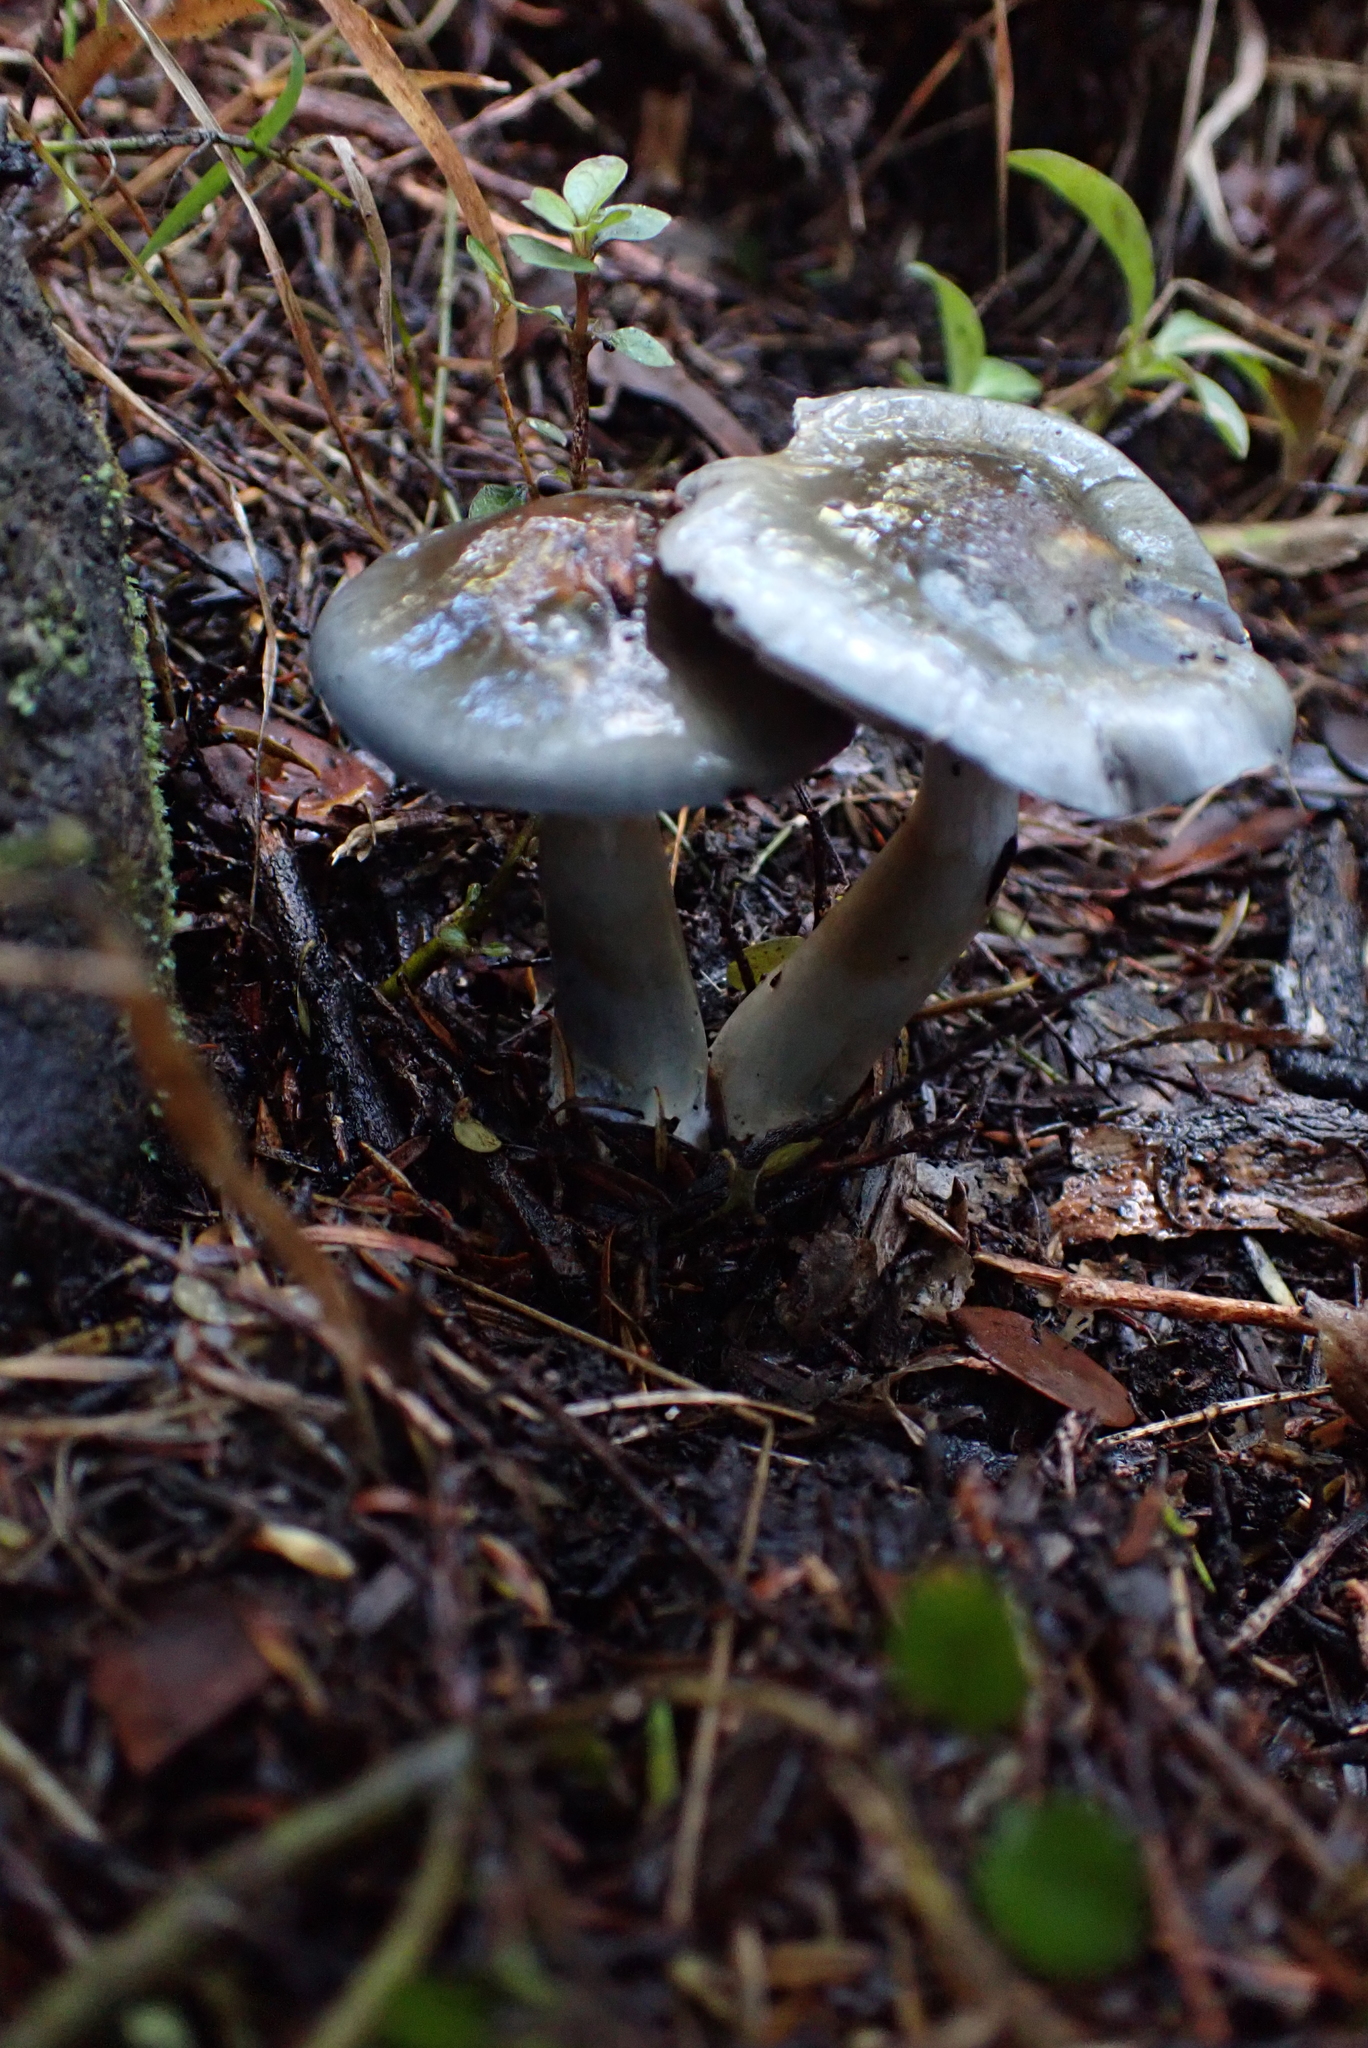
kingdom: Fungi
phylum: Basidiomycota
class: Agaricomycetes
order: Agaricales
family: Cortinariaceae
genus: Cortinarius
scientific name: Cortinarius rotundisporus
